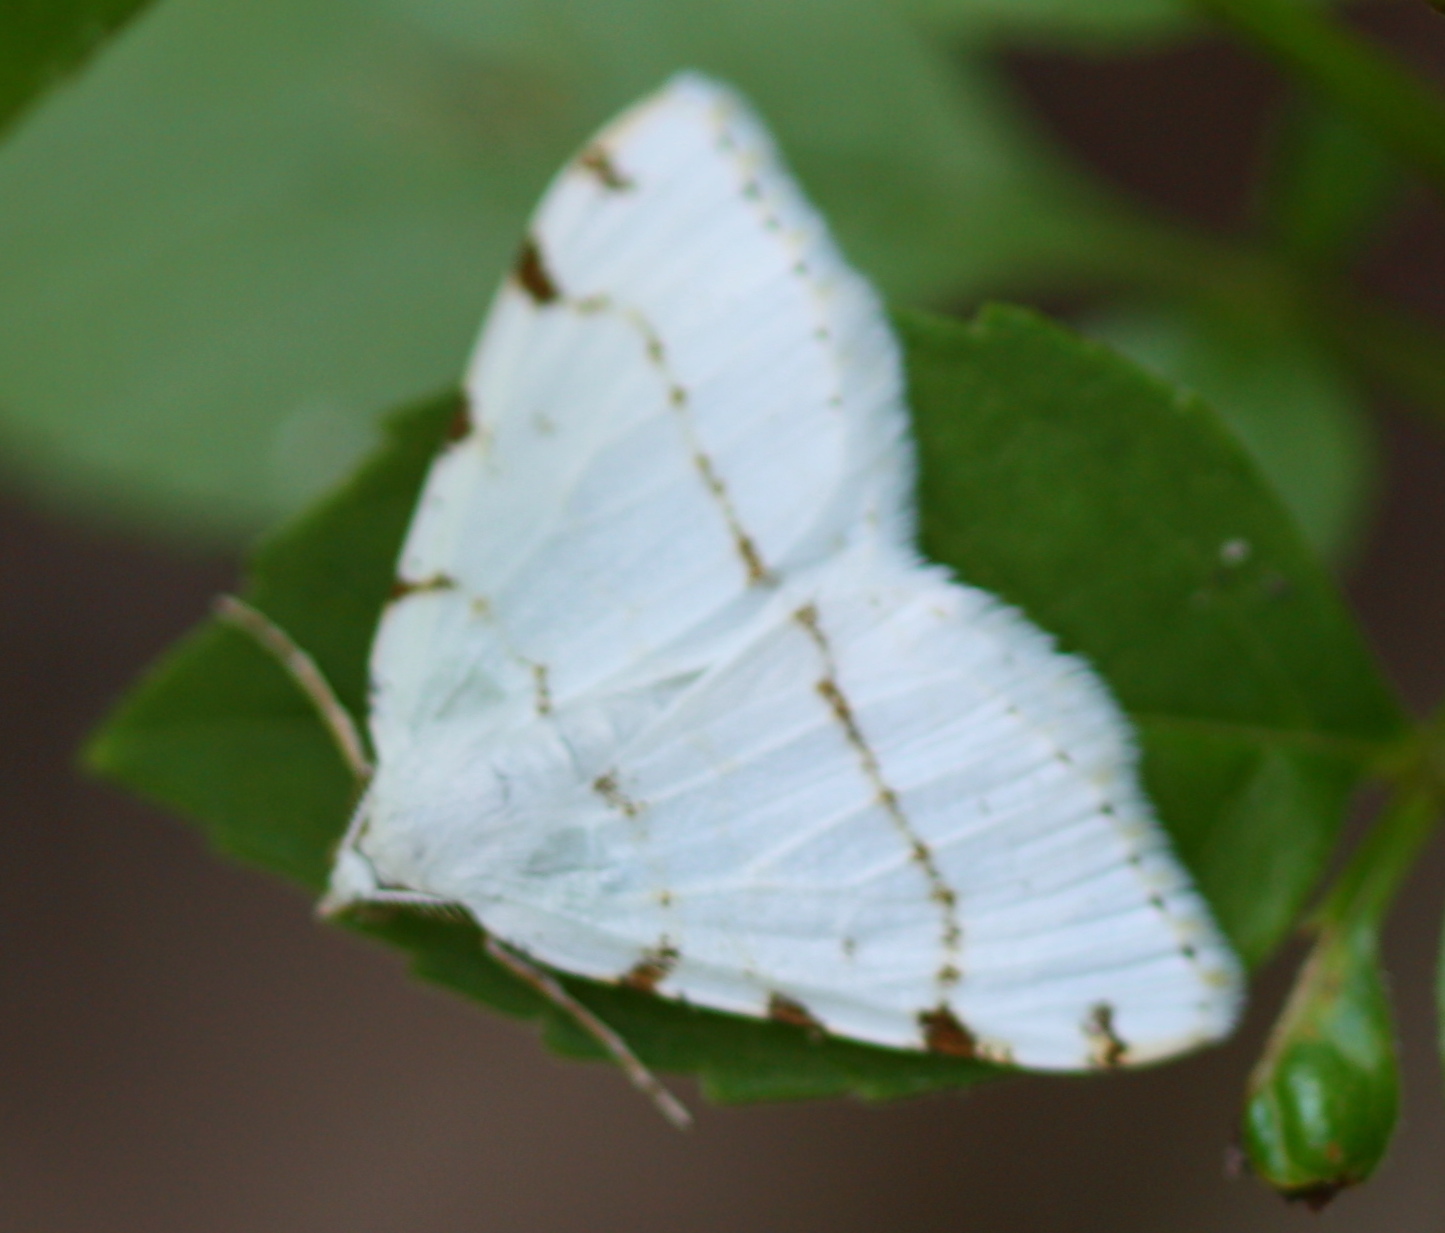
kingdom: Animalia
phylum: Arthropoda
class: Insecta
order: Lepidoptera
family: Geometridae
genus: Macaria
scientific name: Macaria pustularia
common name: Lesser maple spanworm moth
